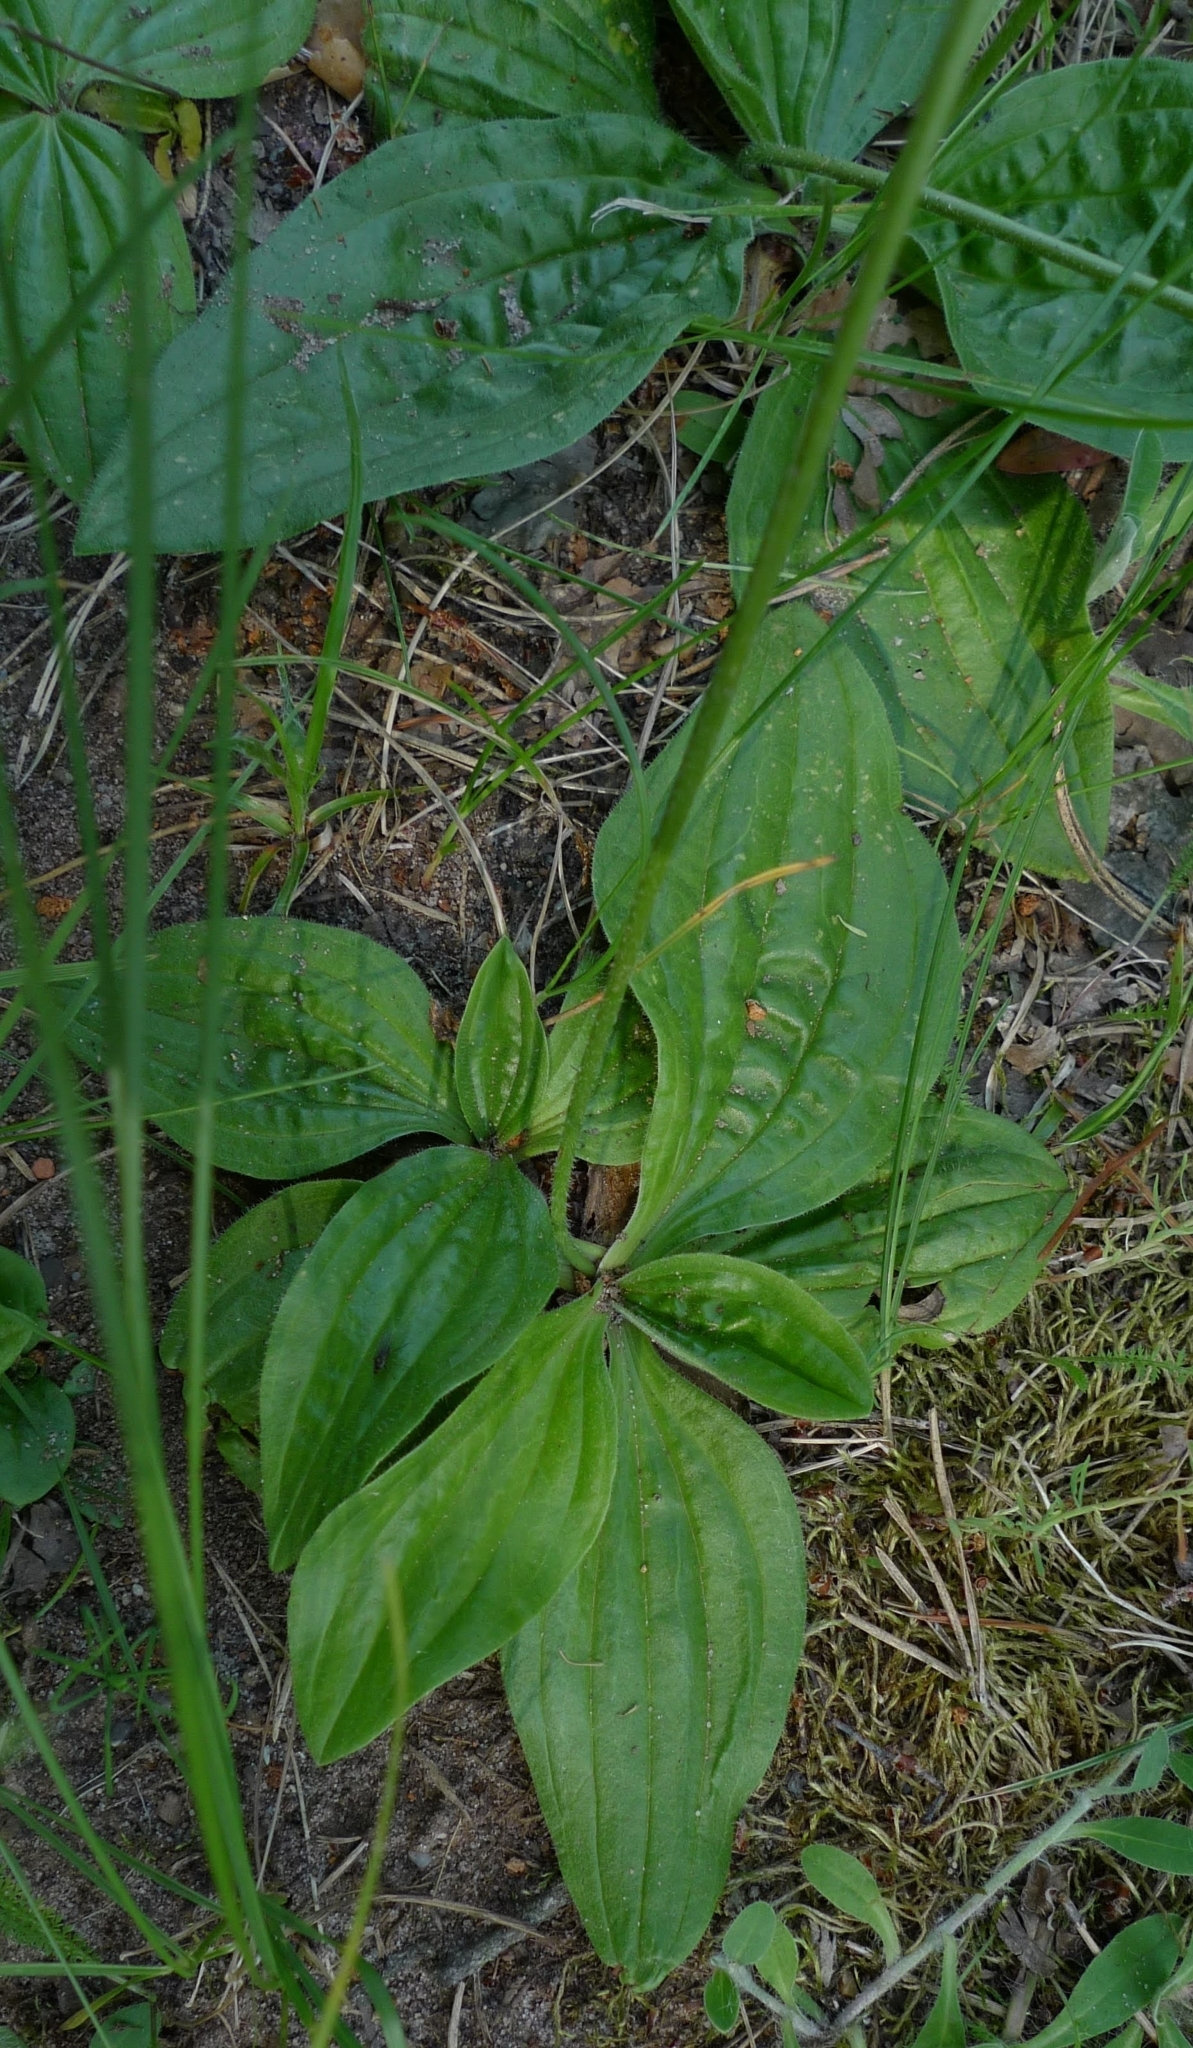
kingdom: Plantae
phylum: Tracheophyta
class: Magnoliopsida
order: Lamiales
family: Plantaginaceae
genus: Plantago
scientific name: Plantago media
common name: Hoary plantain
